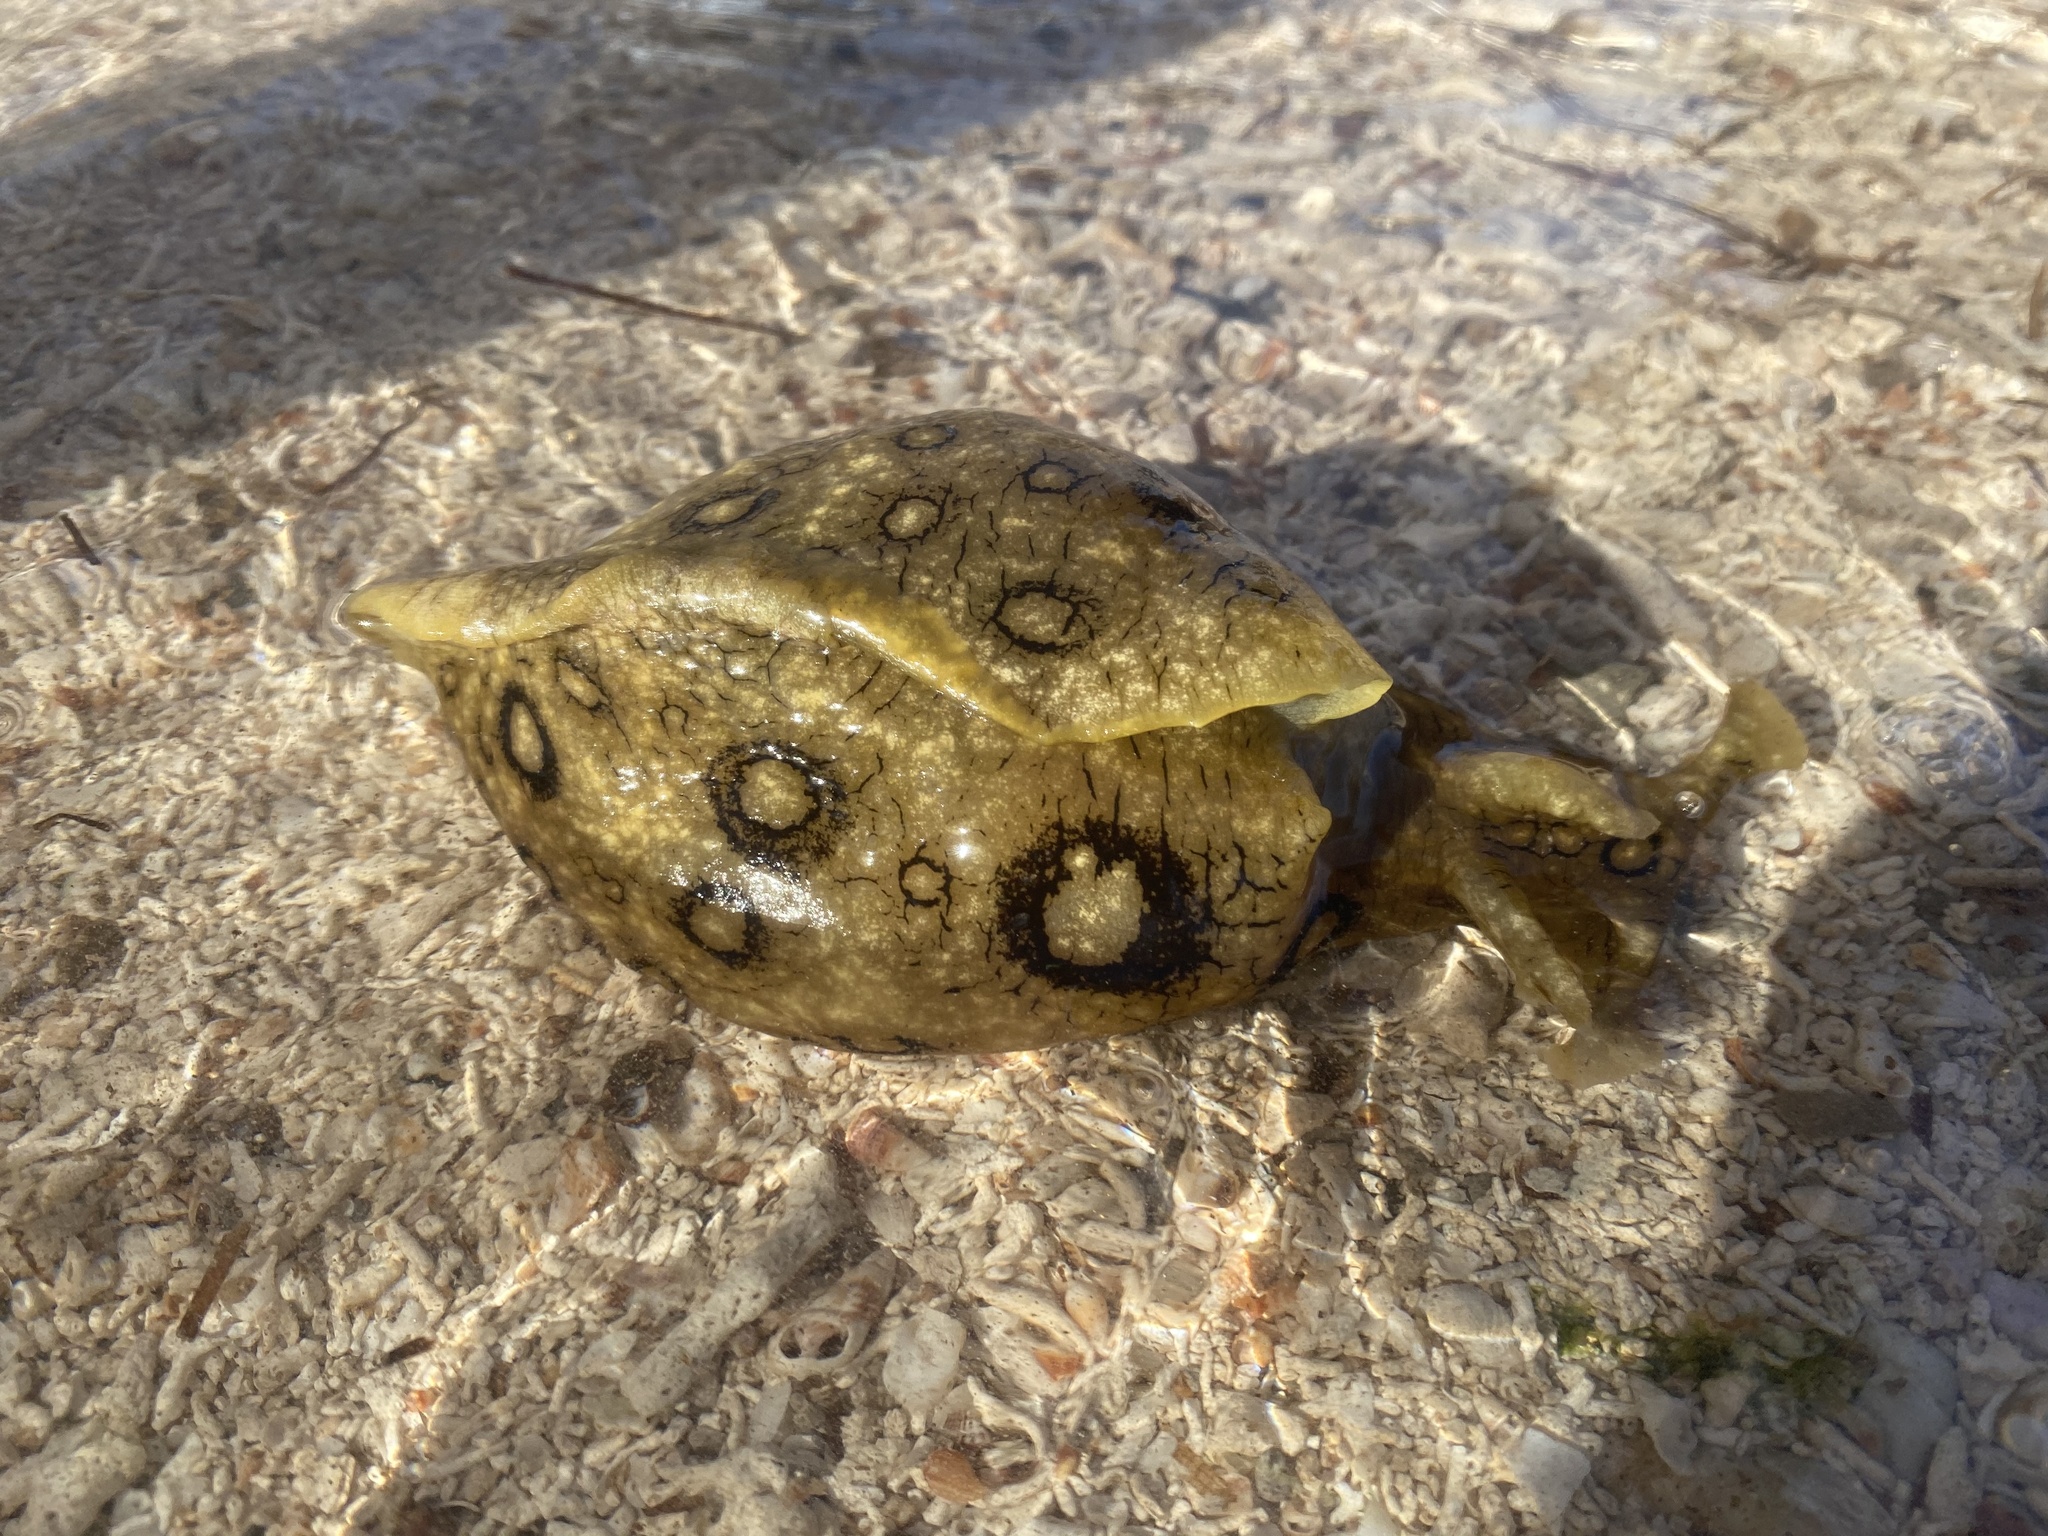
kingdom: Animalia
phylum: Mollusca
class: Gastropoda
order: Aplysiida
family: Aplysiidae
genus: Aplysia
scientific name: Aplysia dactylomela
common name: Large-spotted sea hare
